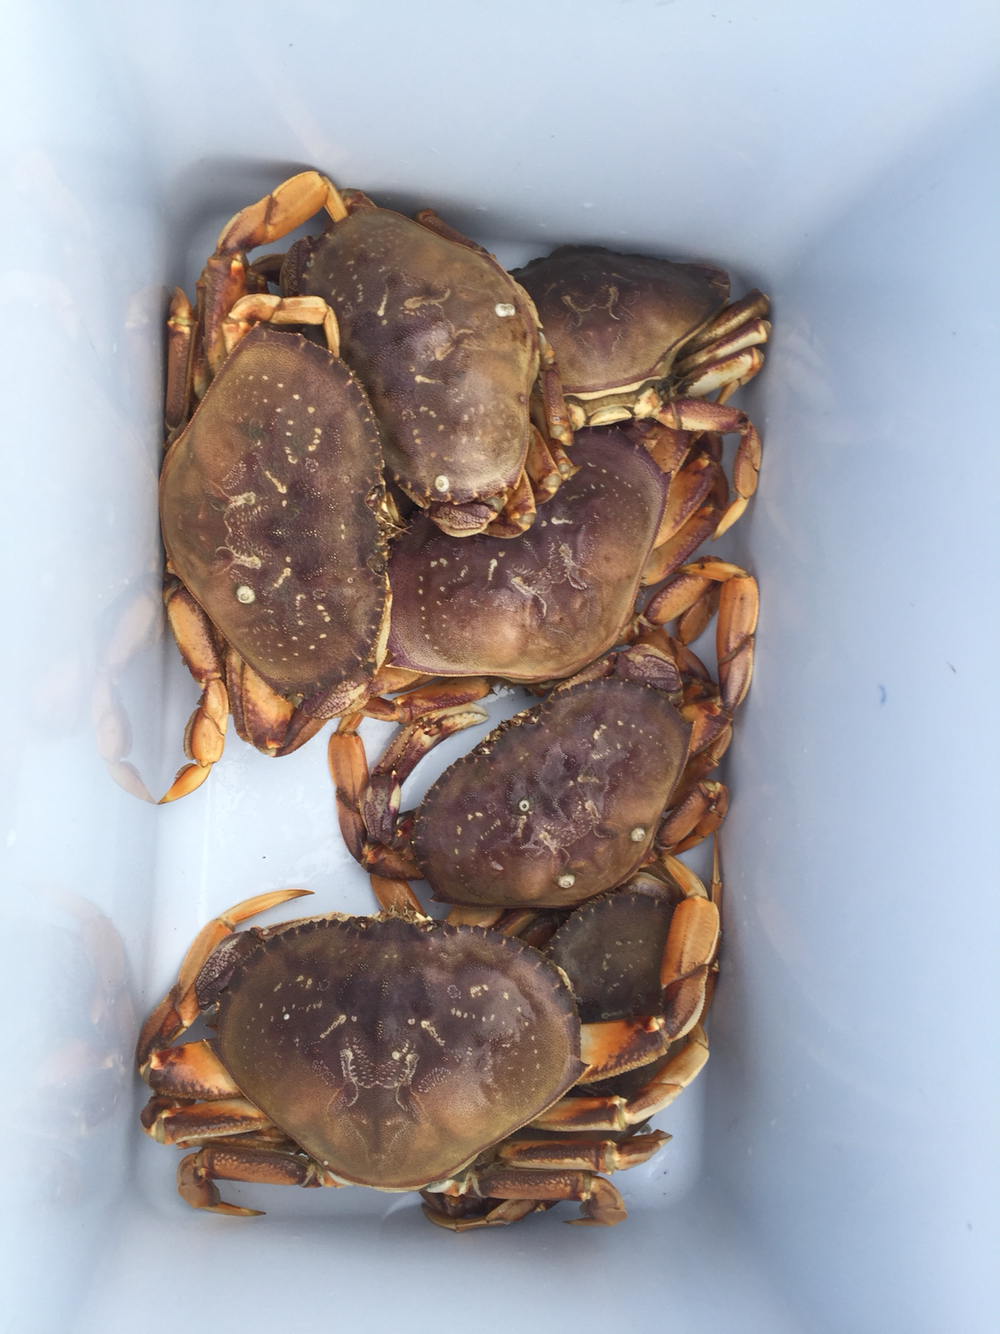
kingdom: Animalia
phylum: Arthropoda
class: Malacostraca
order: Decapoda
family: Cancridae
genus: Metacarcinus
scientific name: Metacarcinus magister
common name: Californian crab
